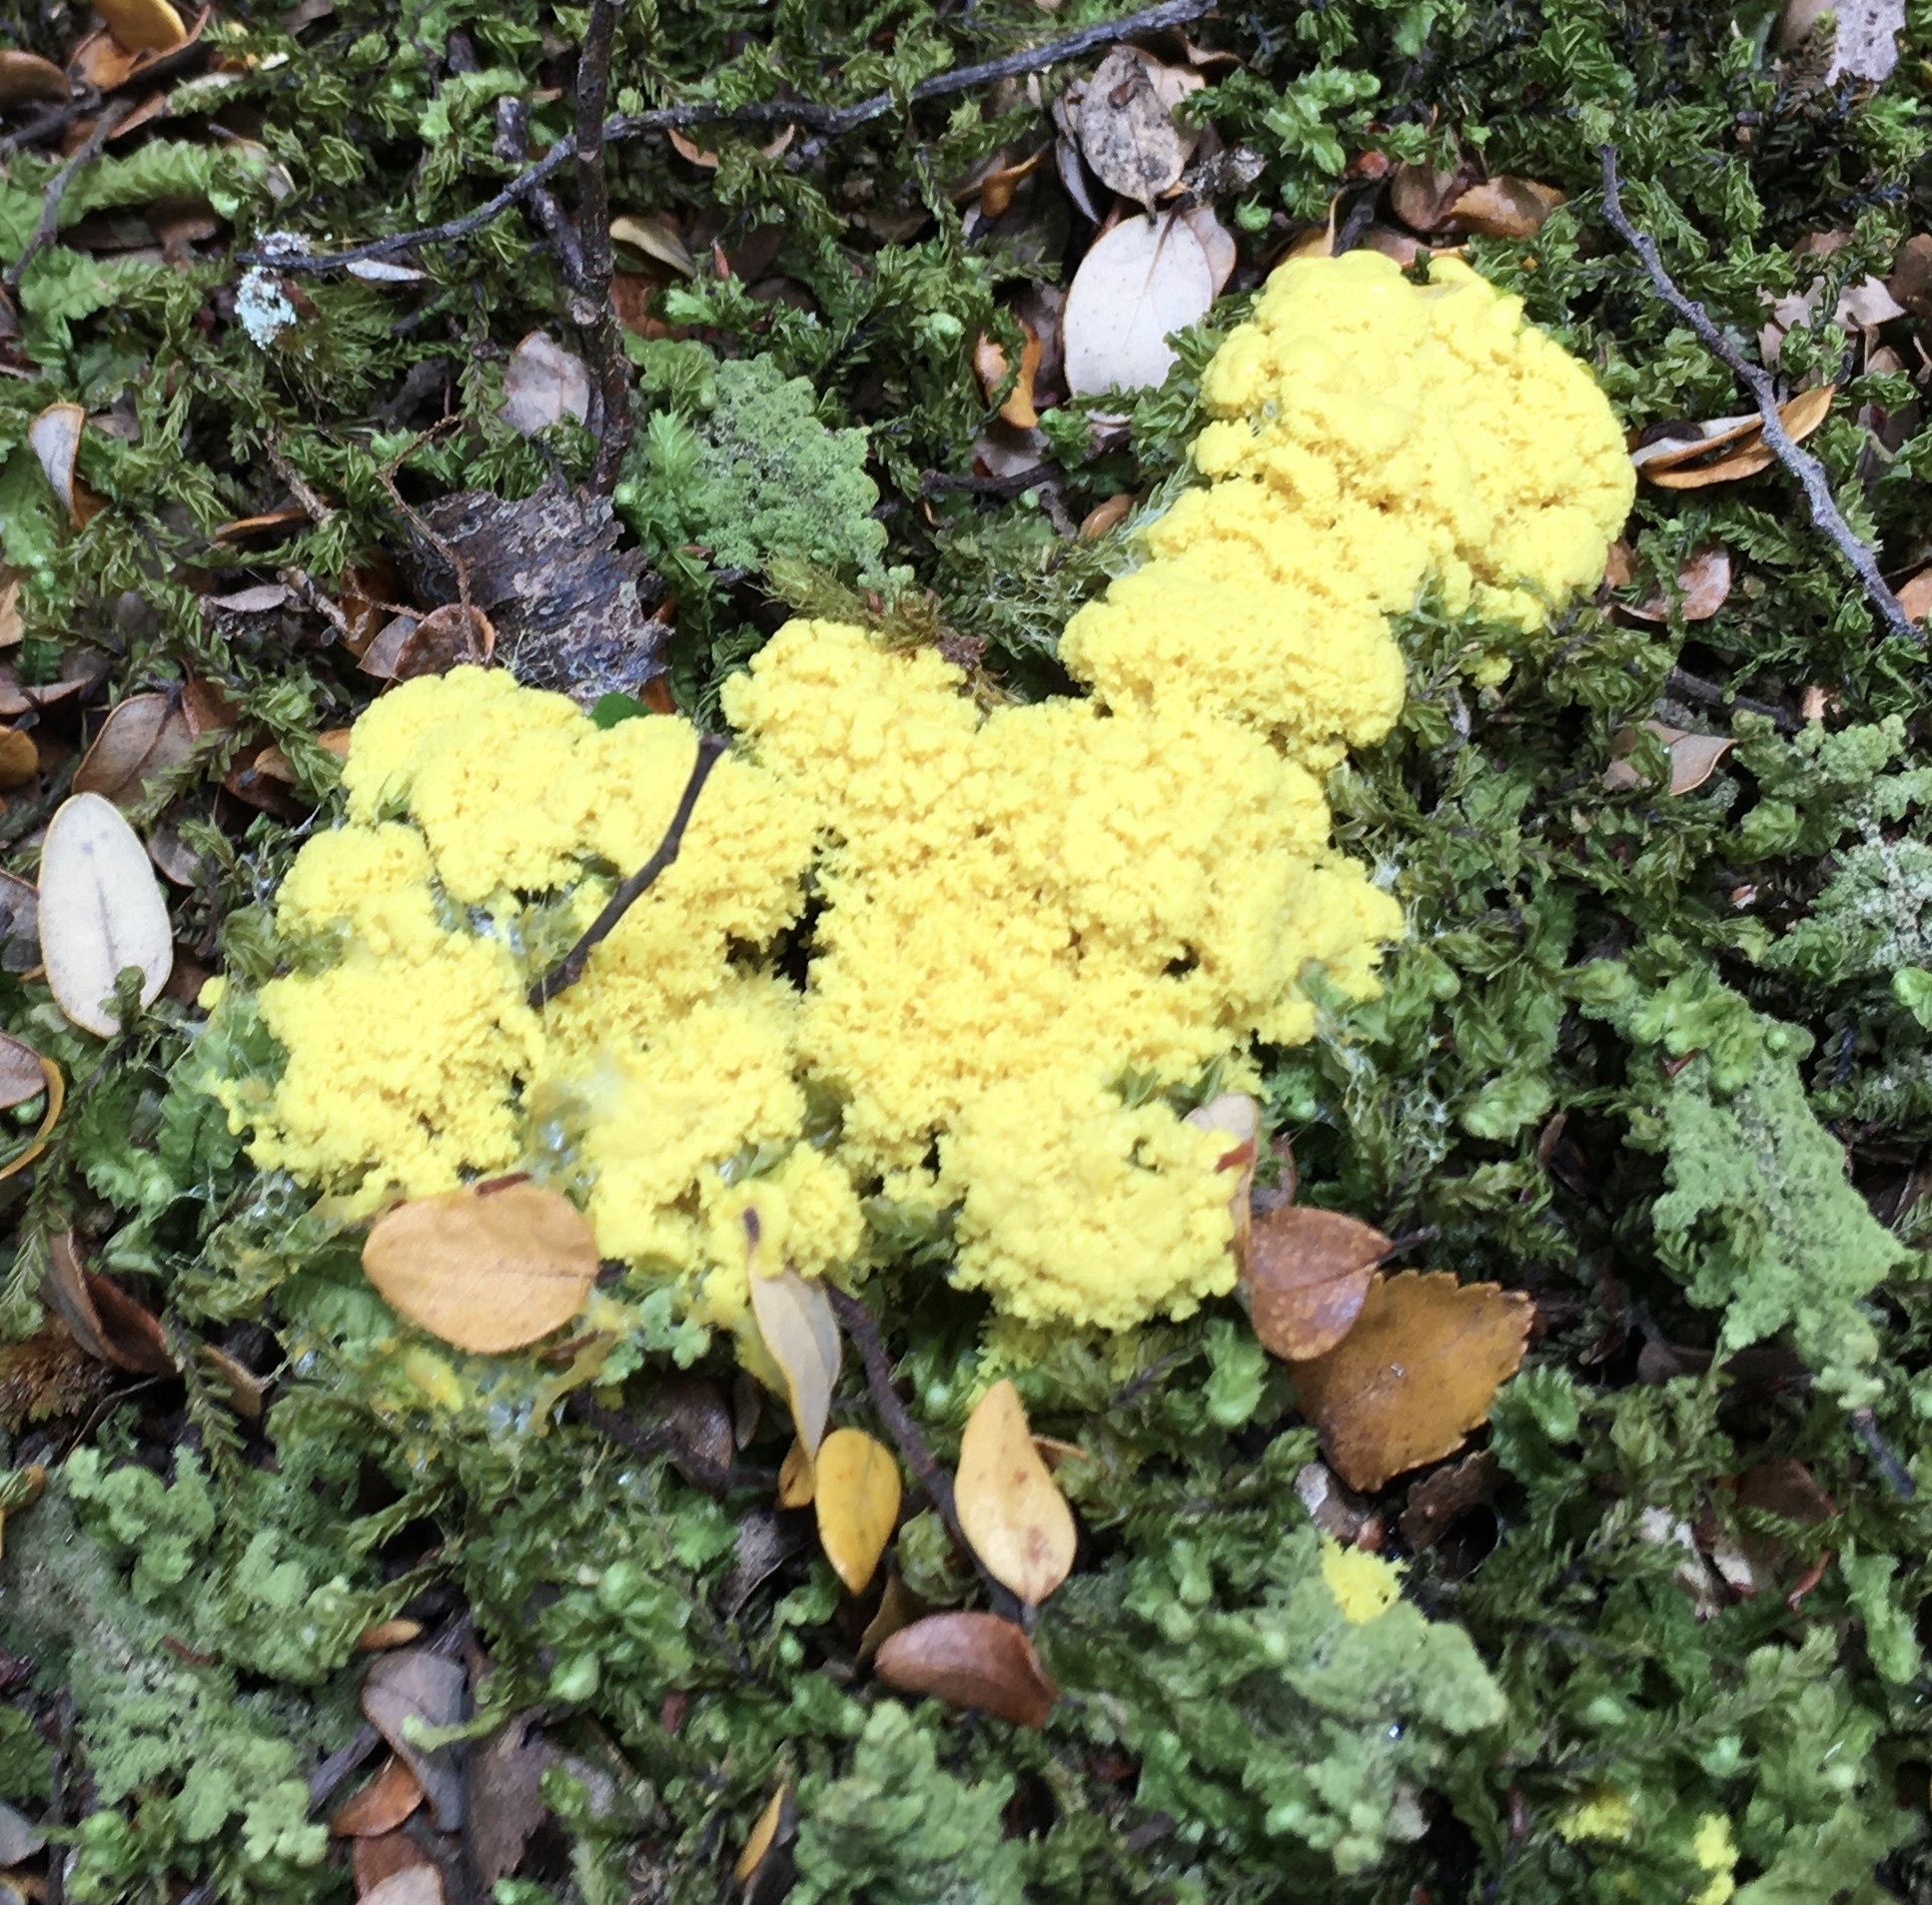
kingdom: Protozoa
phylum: Mycetozoa
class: Myxomycetes
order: Physarales
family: Physaraceae
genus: Fuligo
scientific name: Fuligo septica
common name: Dog vomit slime mold
